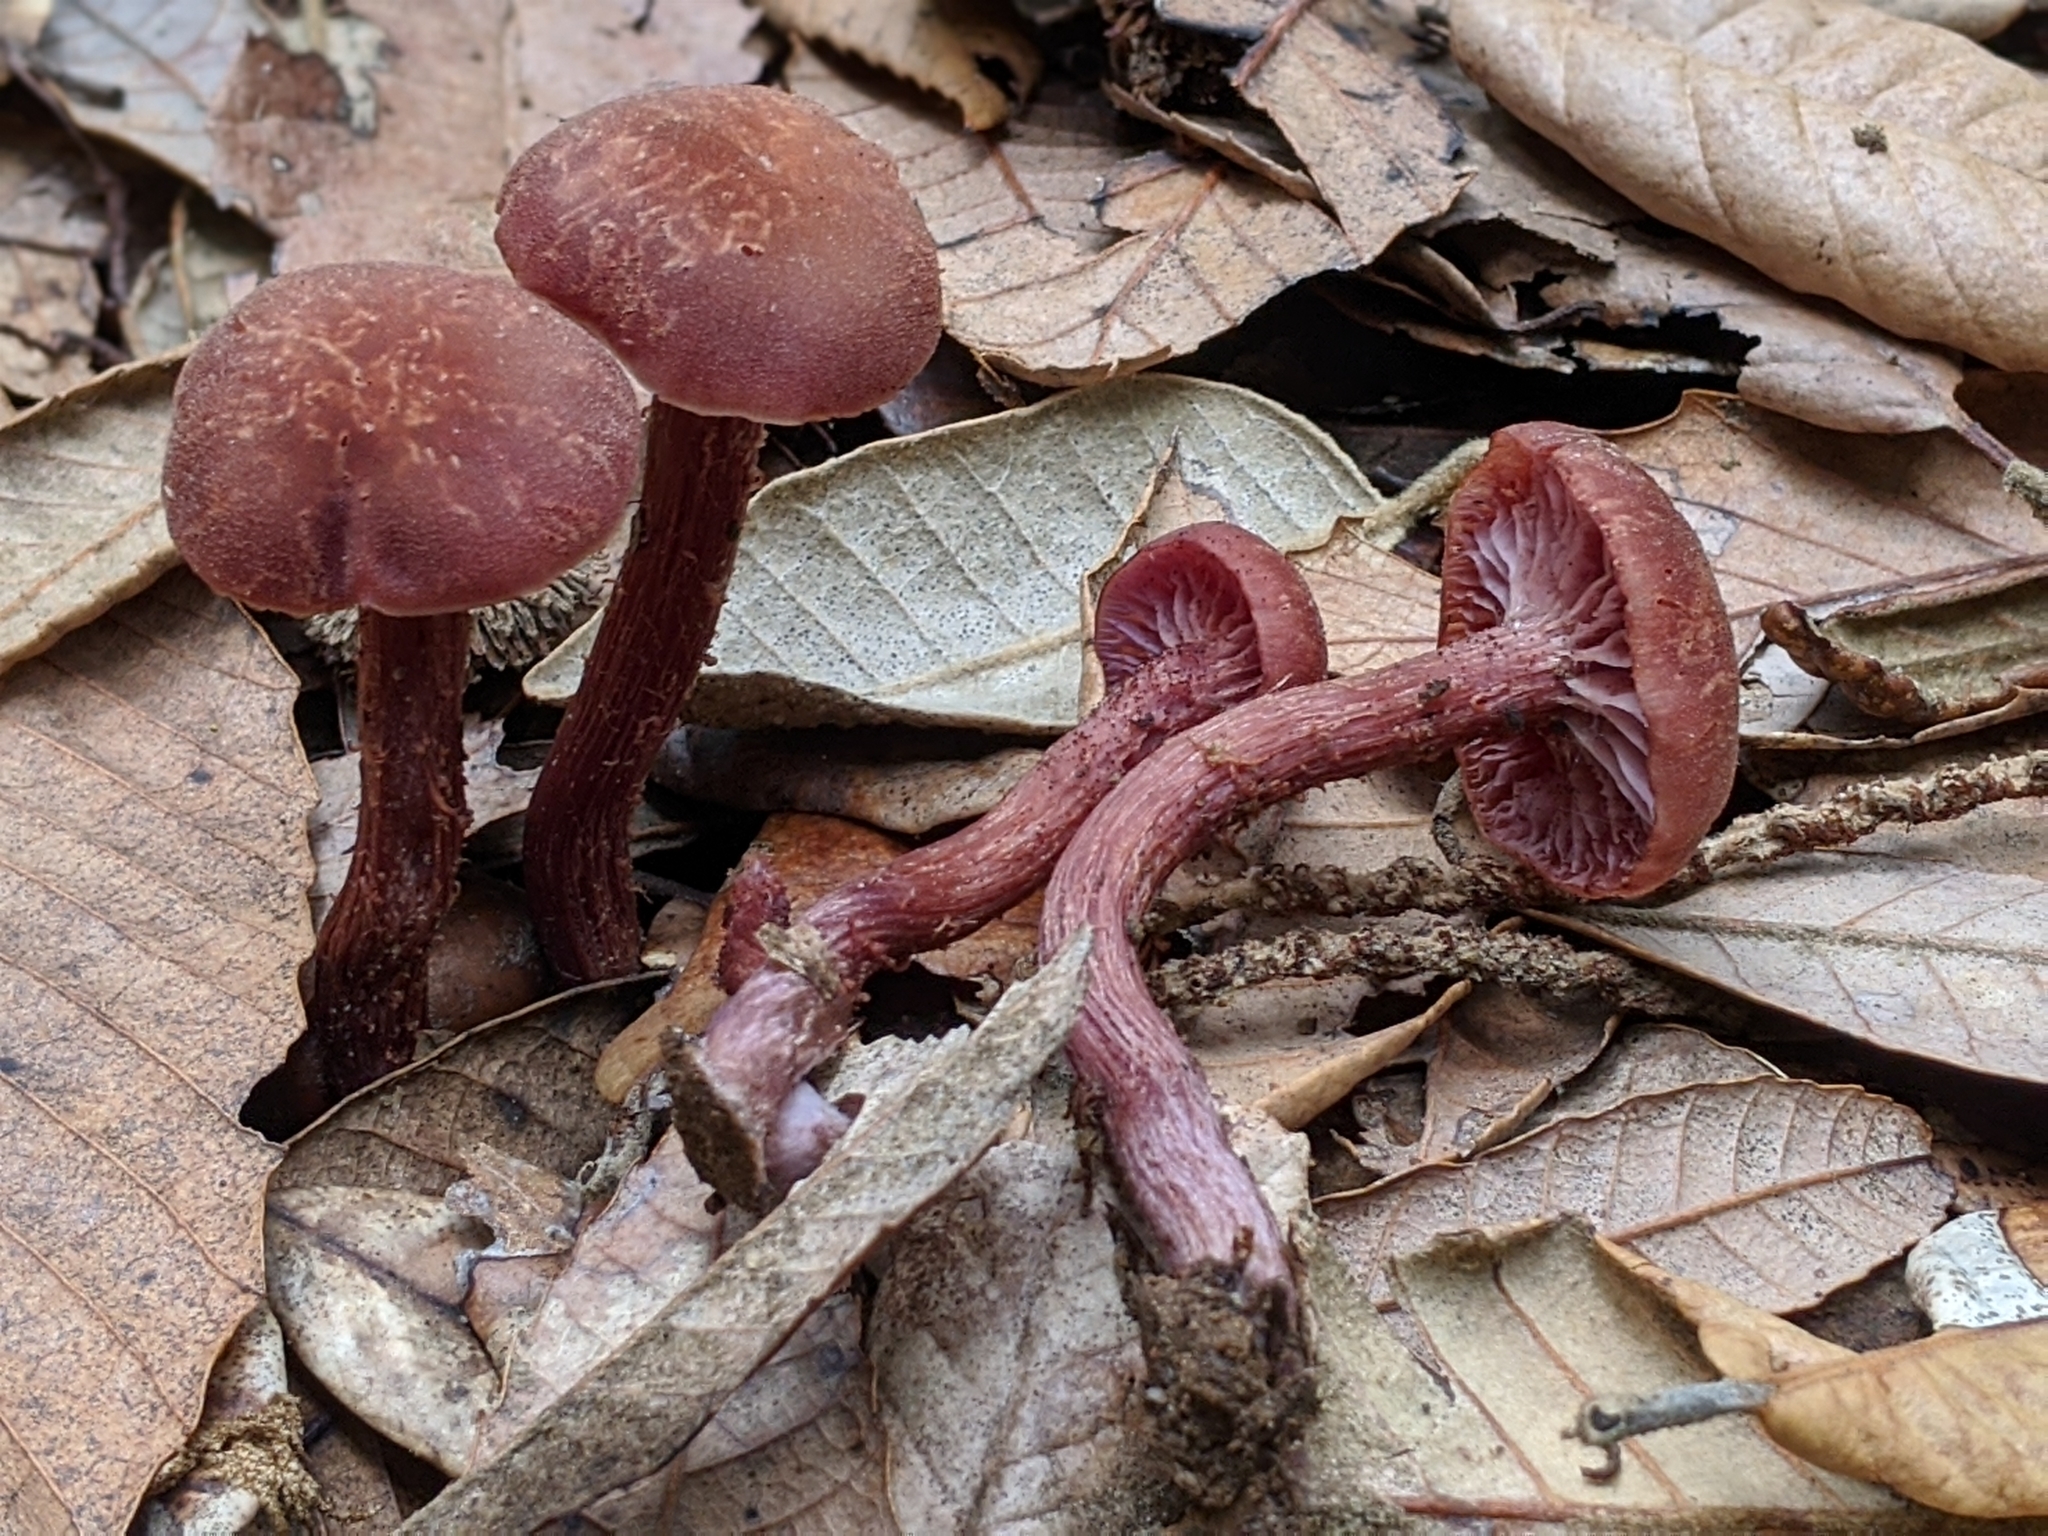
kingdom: Fungi
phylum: Basidiomycota
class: Agaricomycetes
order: Agaricales
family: Hydnangiaceae
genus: Laccaria
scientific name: Laccaria amethysteo-occidentalis
